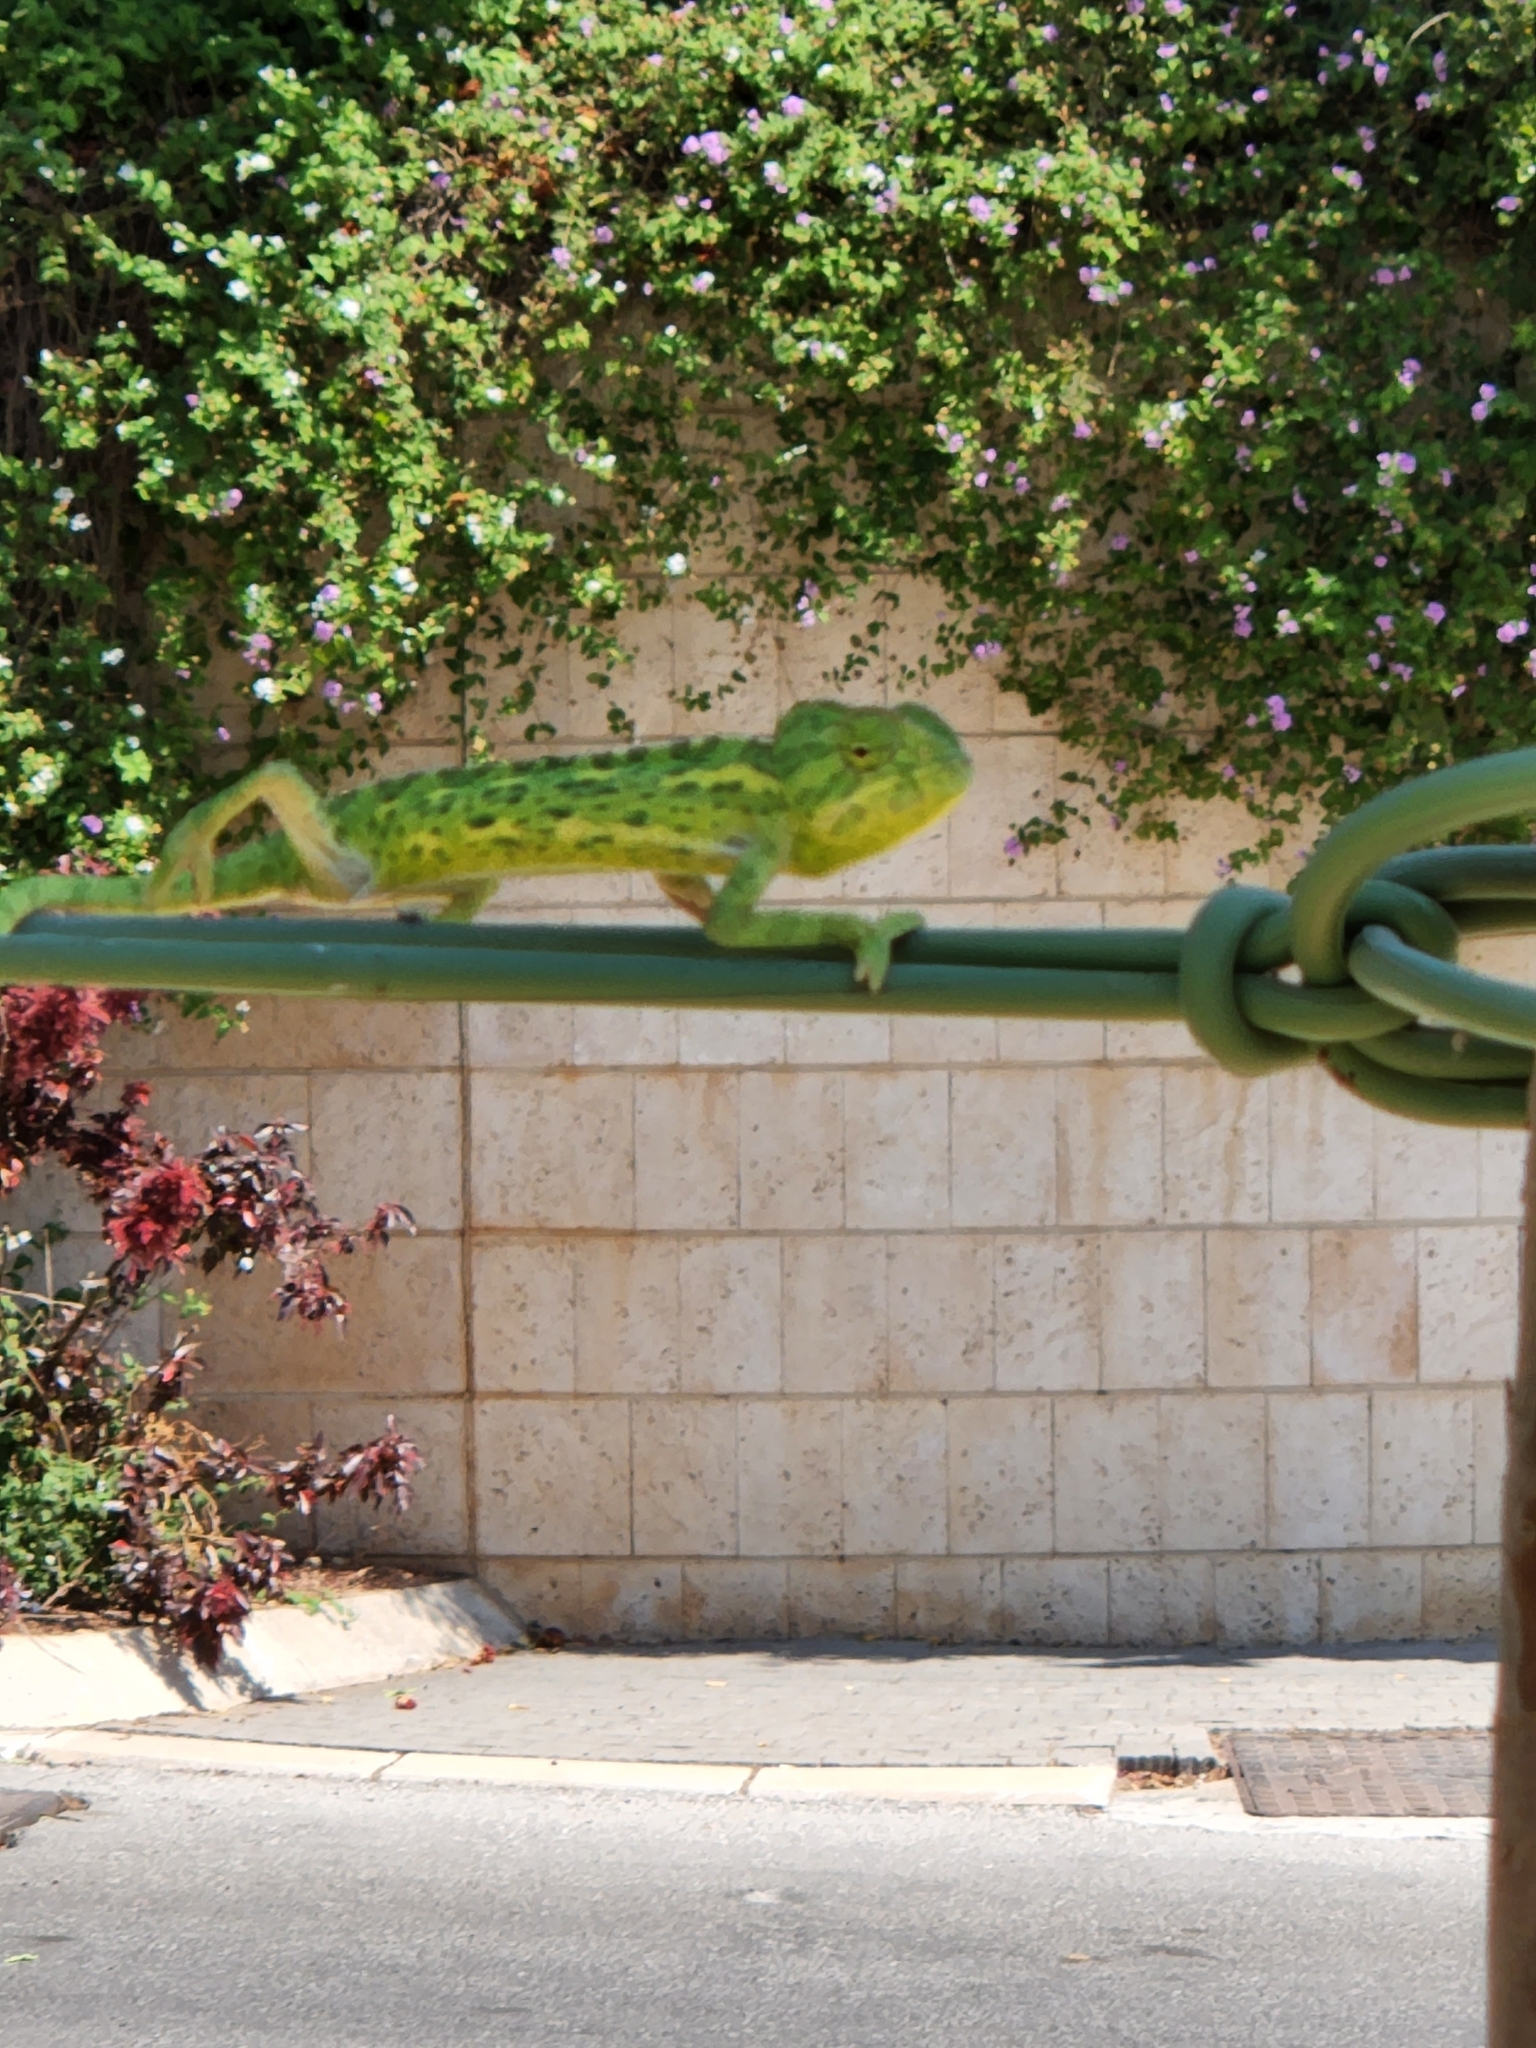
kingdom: Animalia
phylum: Chordata
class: Squamata
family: Chamaeleonidae
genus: Chamaeleo
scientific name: Chamaeleo chamaeleon
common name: Mediterranean chameleon
